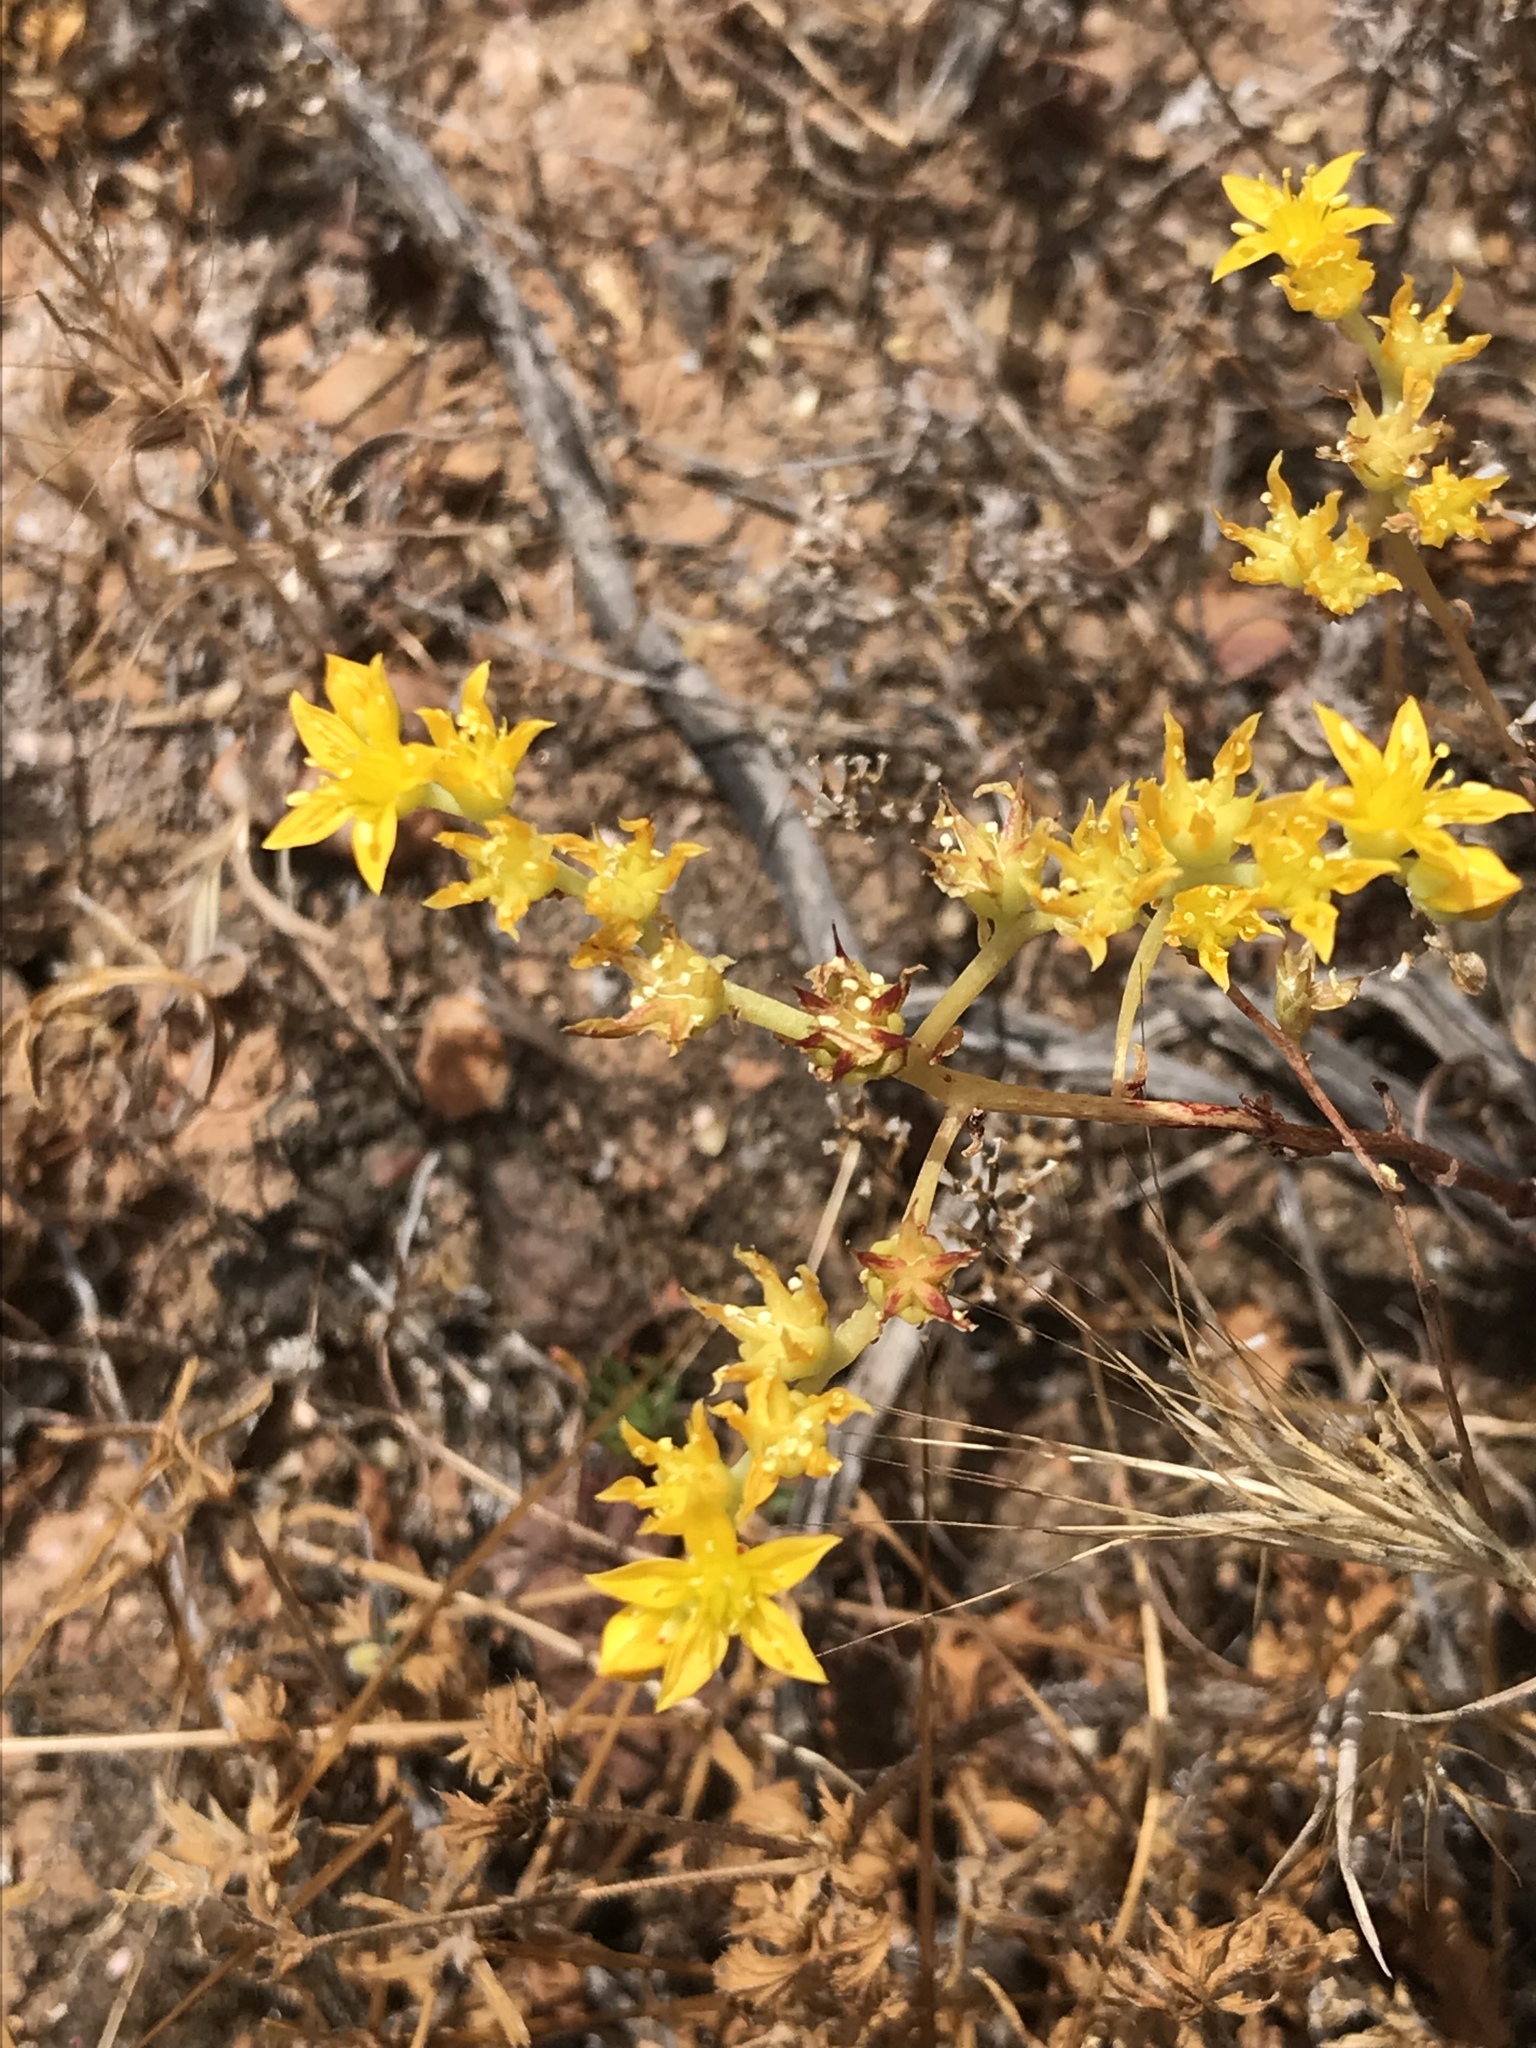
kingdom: Plantae
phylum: Tracheophyta
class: Magnoliopsida
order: Saxifragales
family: Crassulaceae
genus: Dudleya
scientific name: Dudleya variegata
